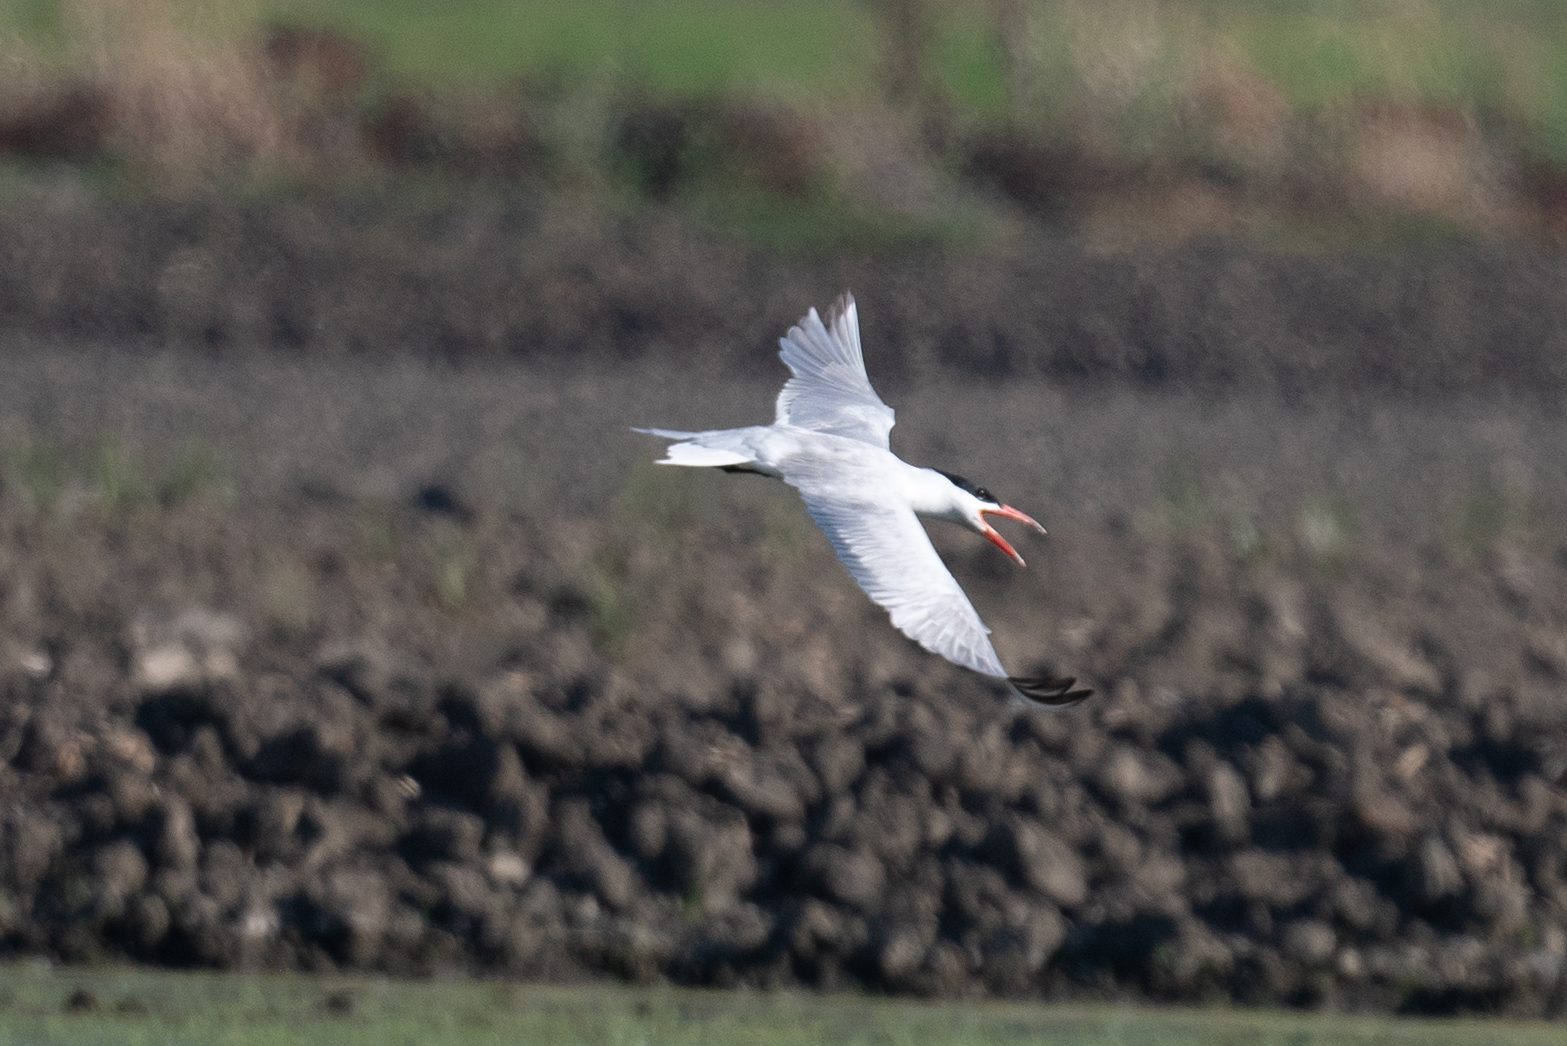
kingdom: Animalia
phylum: Chordata
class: Aves
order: Charadriiformes
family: Laridae
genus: Hydroprogne
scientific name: Hydroprogne caspia
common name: Caspian tern
